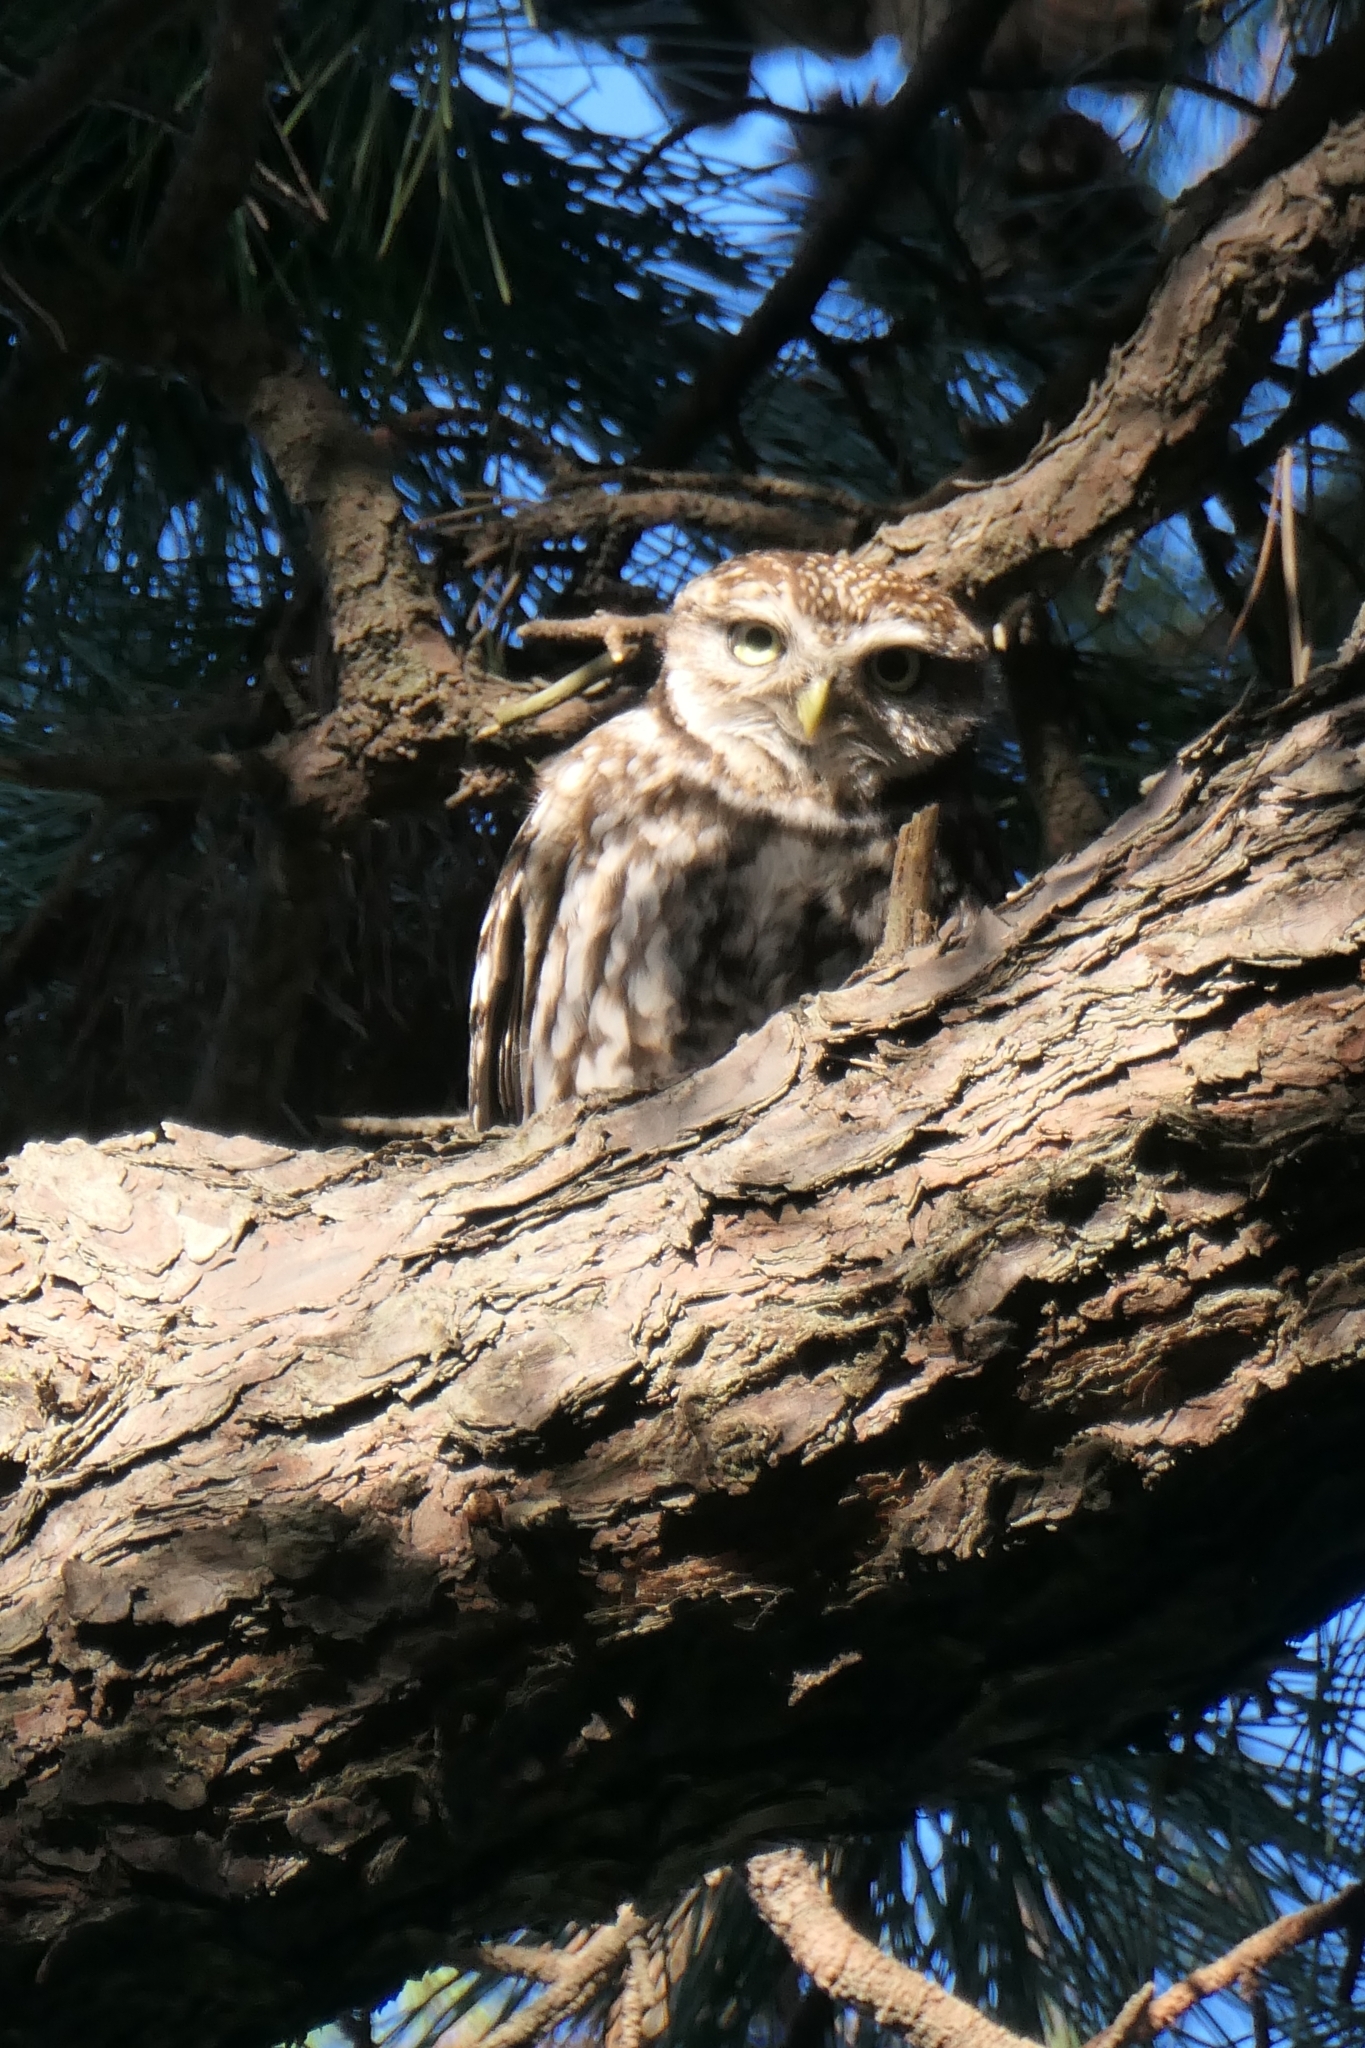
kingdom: Animalia
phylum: Chordata
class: Aves
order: Strigiformes
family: Strigidae
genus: Athene
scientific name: Athene noctua
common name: Little owl
